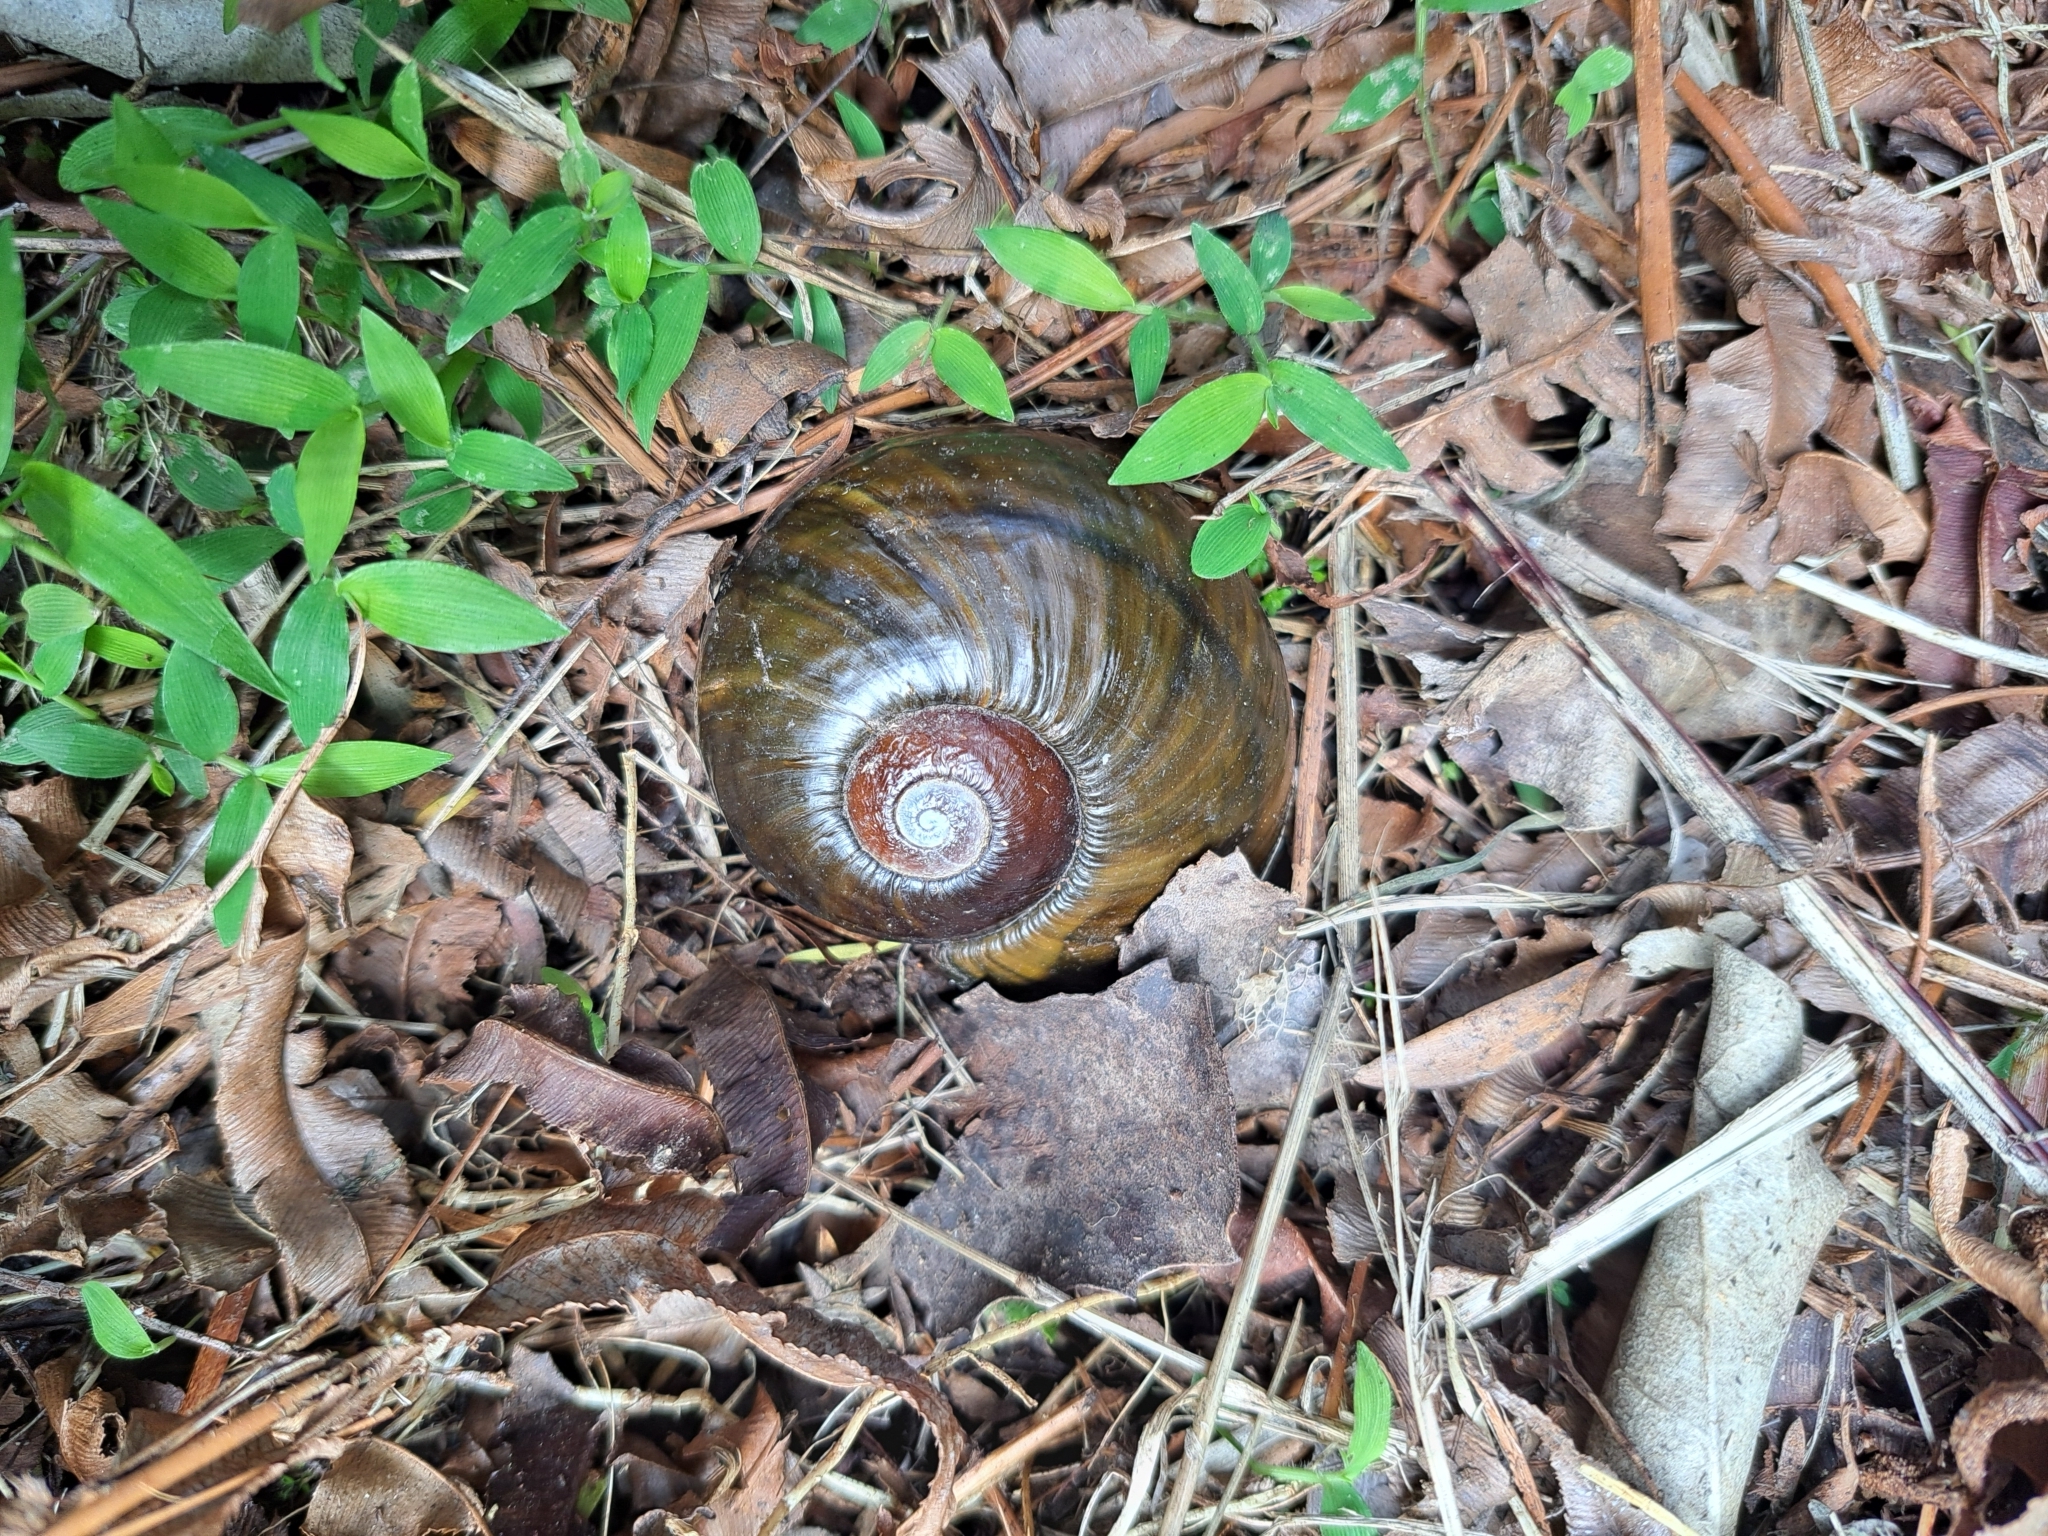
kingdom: Animalia
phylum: Mollusca
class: Gastropoda
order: Stylommatophora
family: Rhytididae
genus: Paryphanta
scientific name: Paryphanta busbyi
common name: Kauri snail
